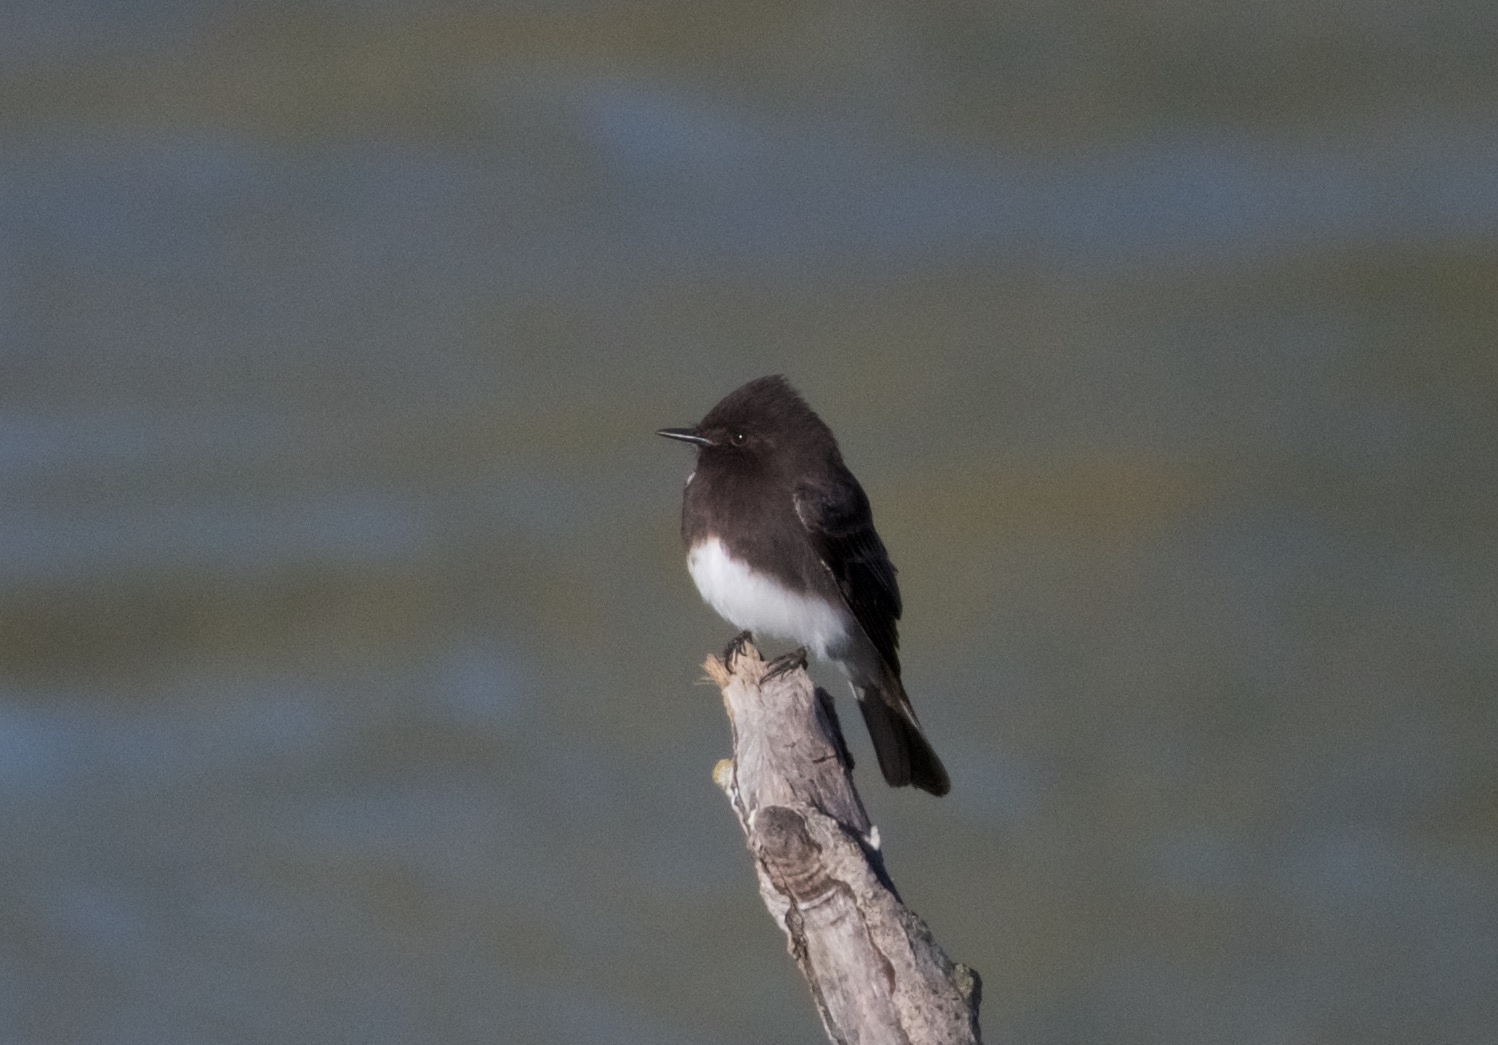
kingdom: Animalia
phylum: Chordata
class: Aves
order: Passeriformes
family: Tyrannidae
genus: Sayornis
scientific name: Sayornis nigricans
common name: Black phoebe
